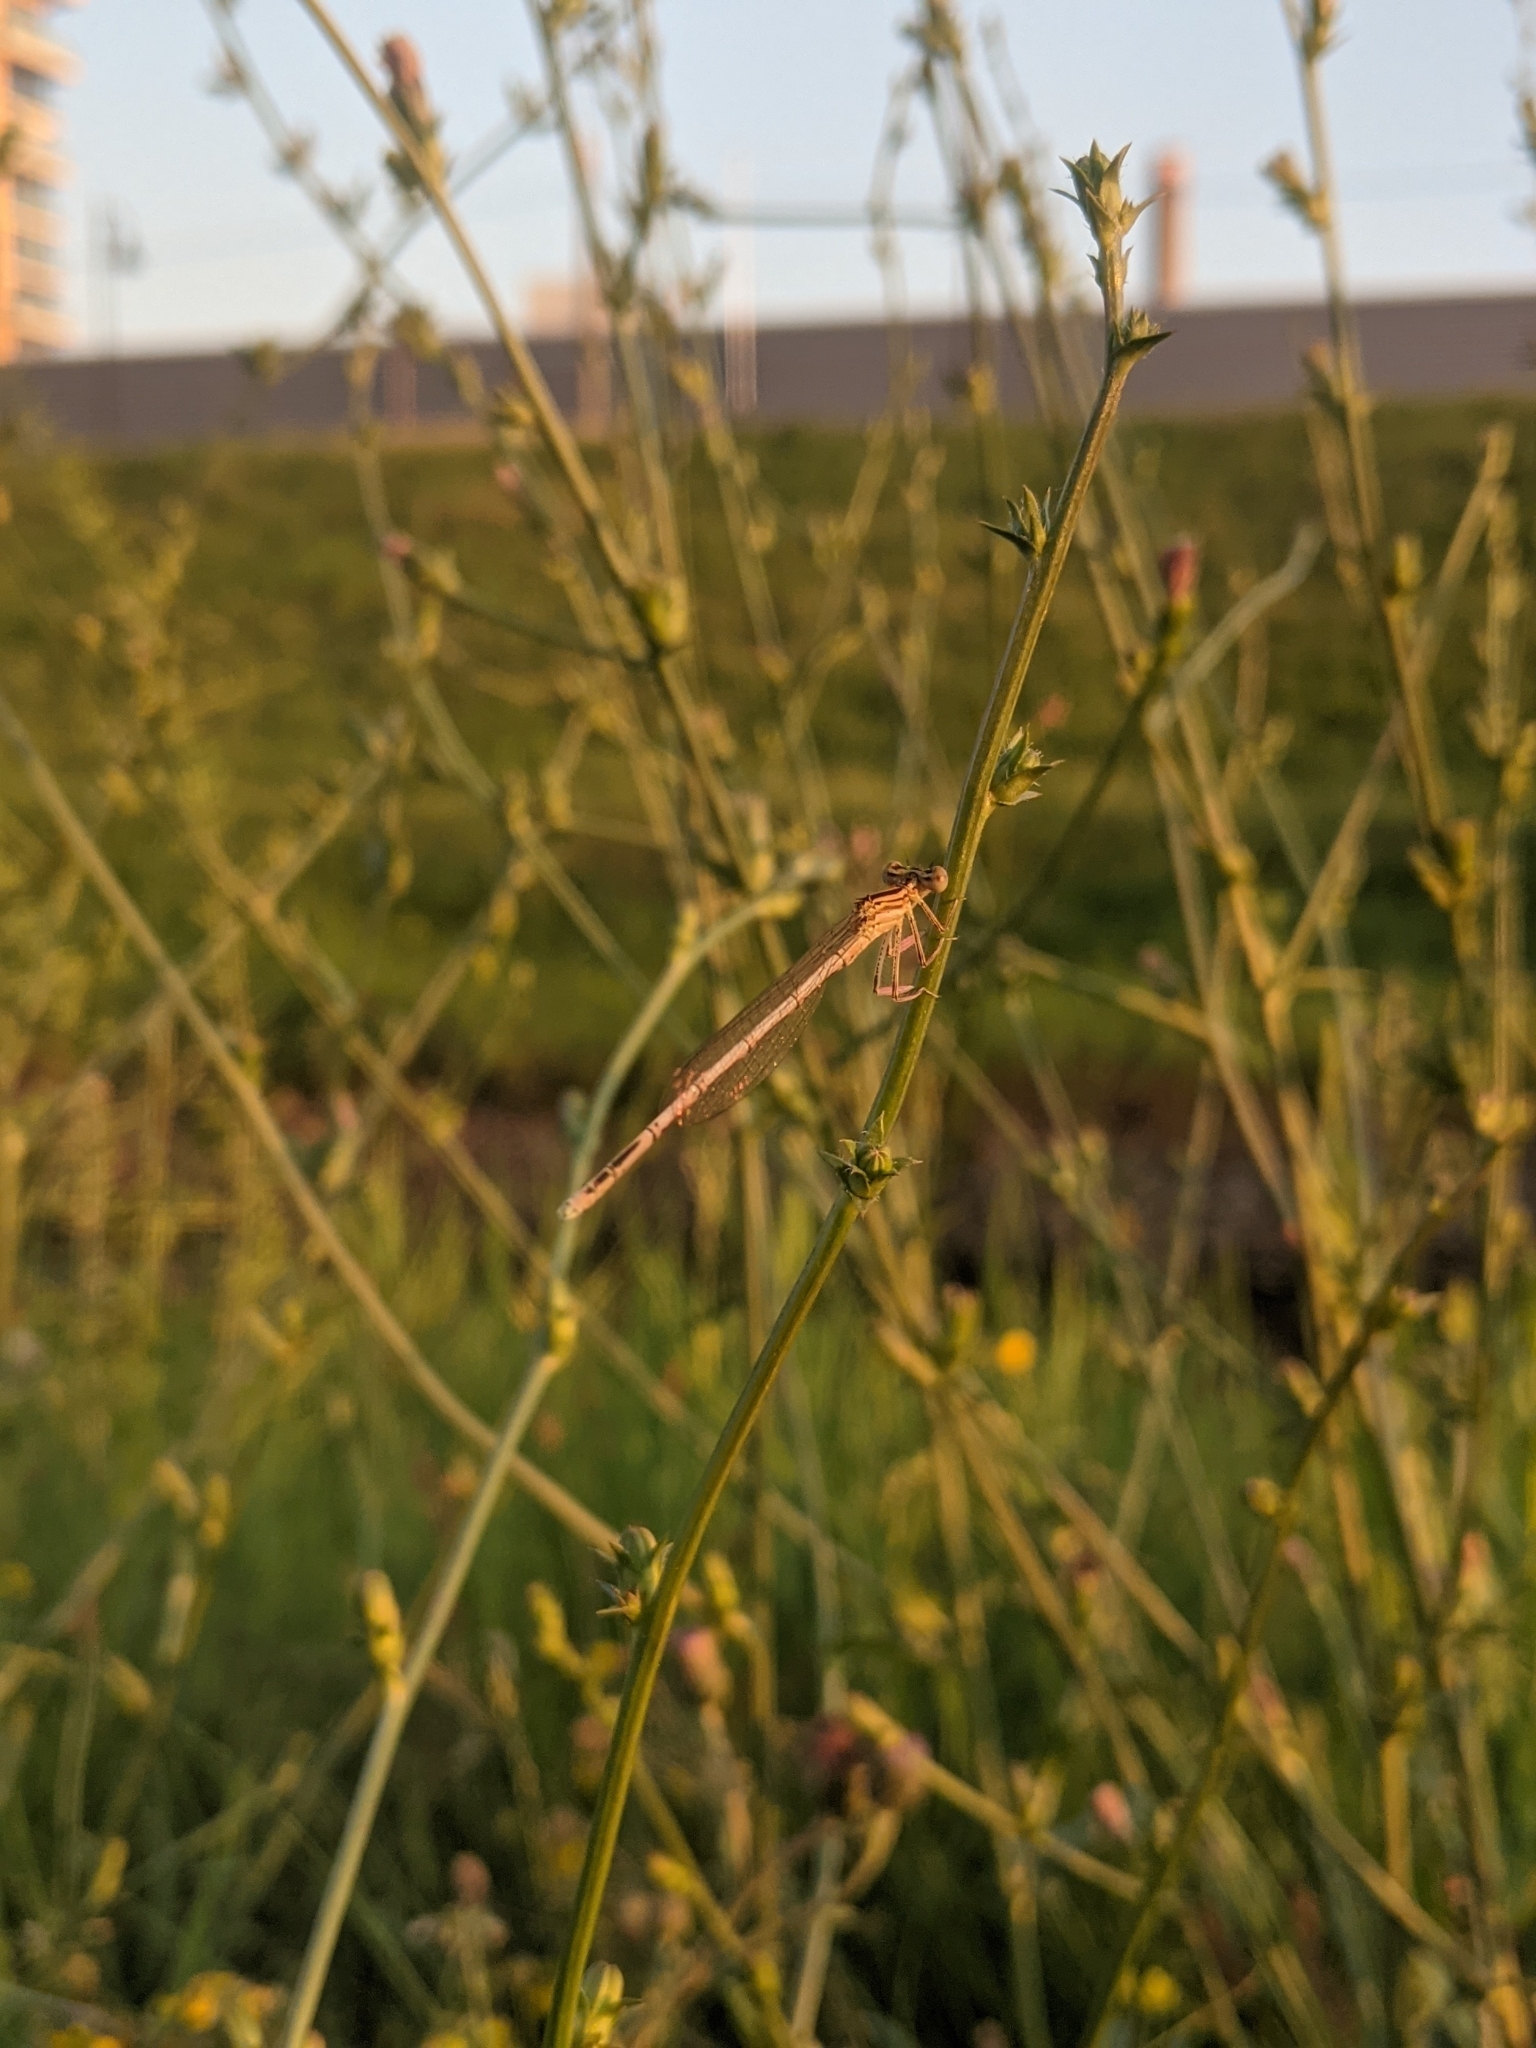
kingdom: Animalia
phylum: Arthropoda
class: Insecta
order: Odonata
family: Platycnemididae
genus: Platycnemis
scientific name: Platycnemis pennipes
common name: White-legged damselfly
